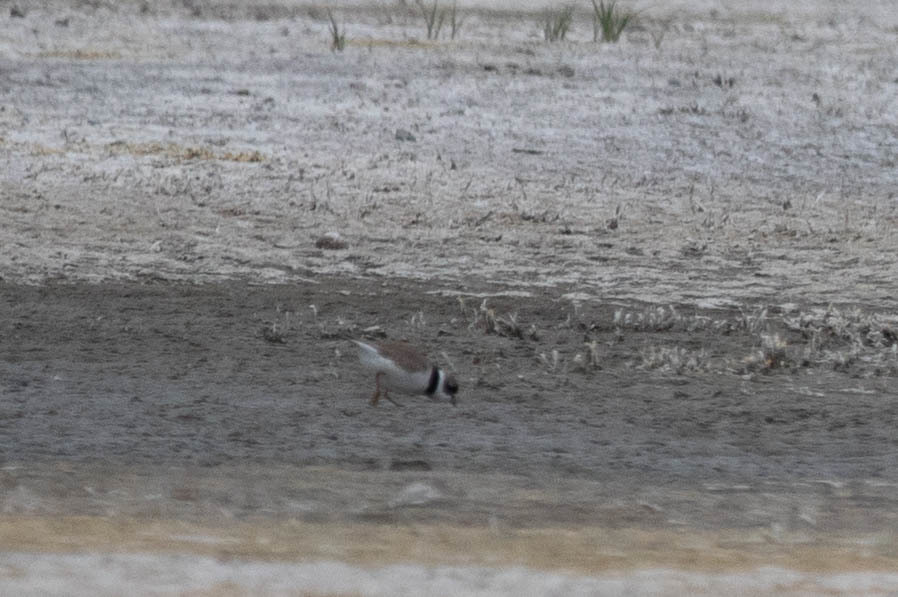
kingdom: Animalia
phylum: Chordata
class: Aves
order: Charadriiformes
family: Charadriidae
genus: Charadrius
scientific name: Charadrius semipalmatus
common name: Semipalmated plover
